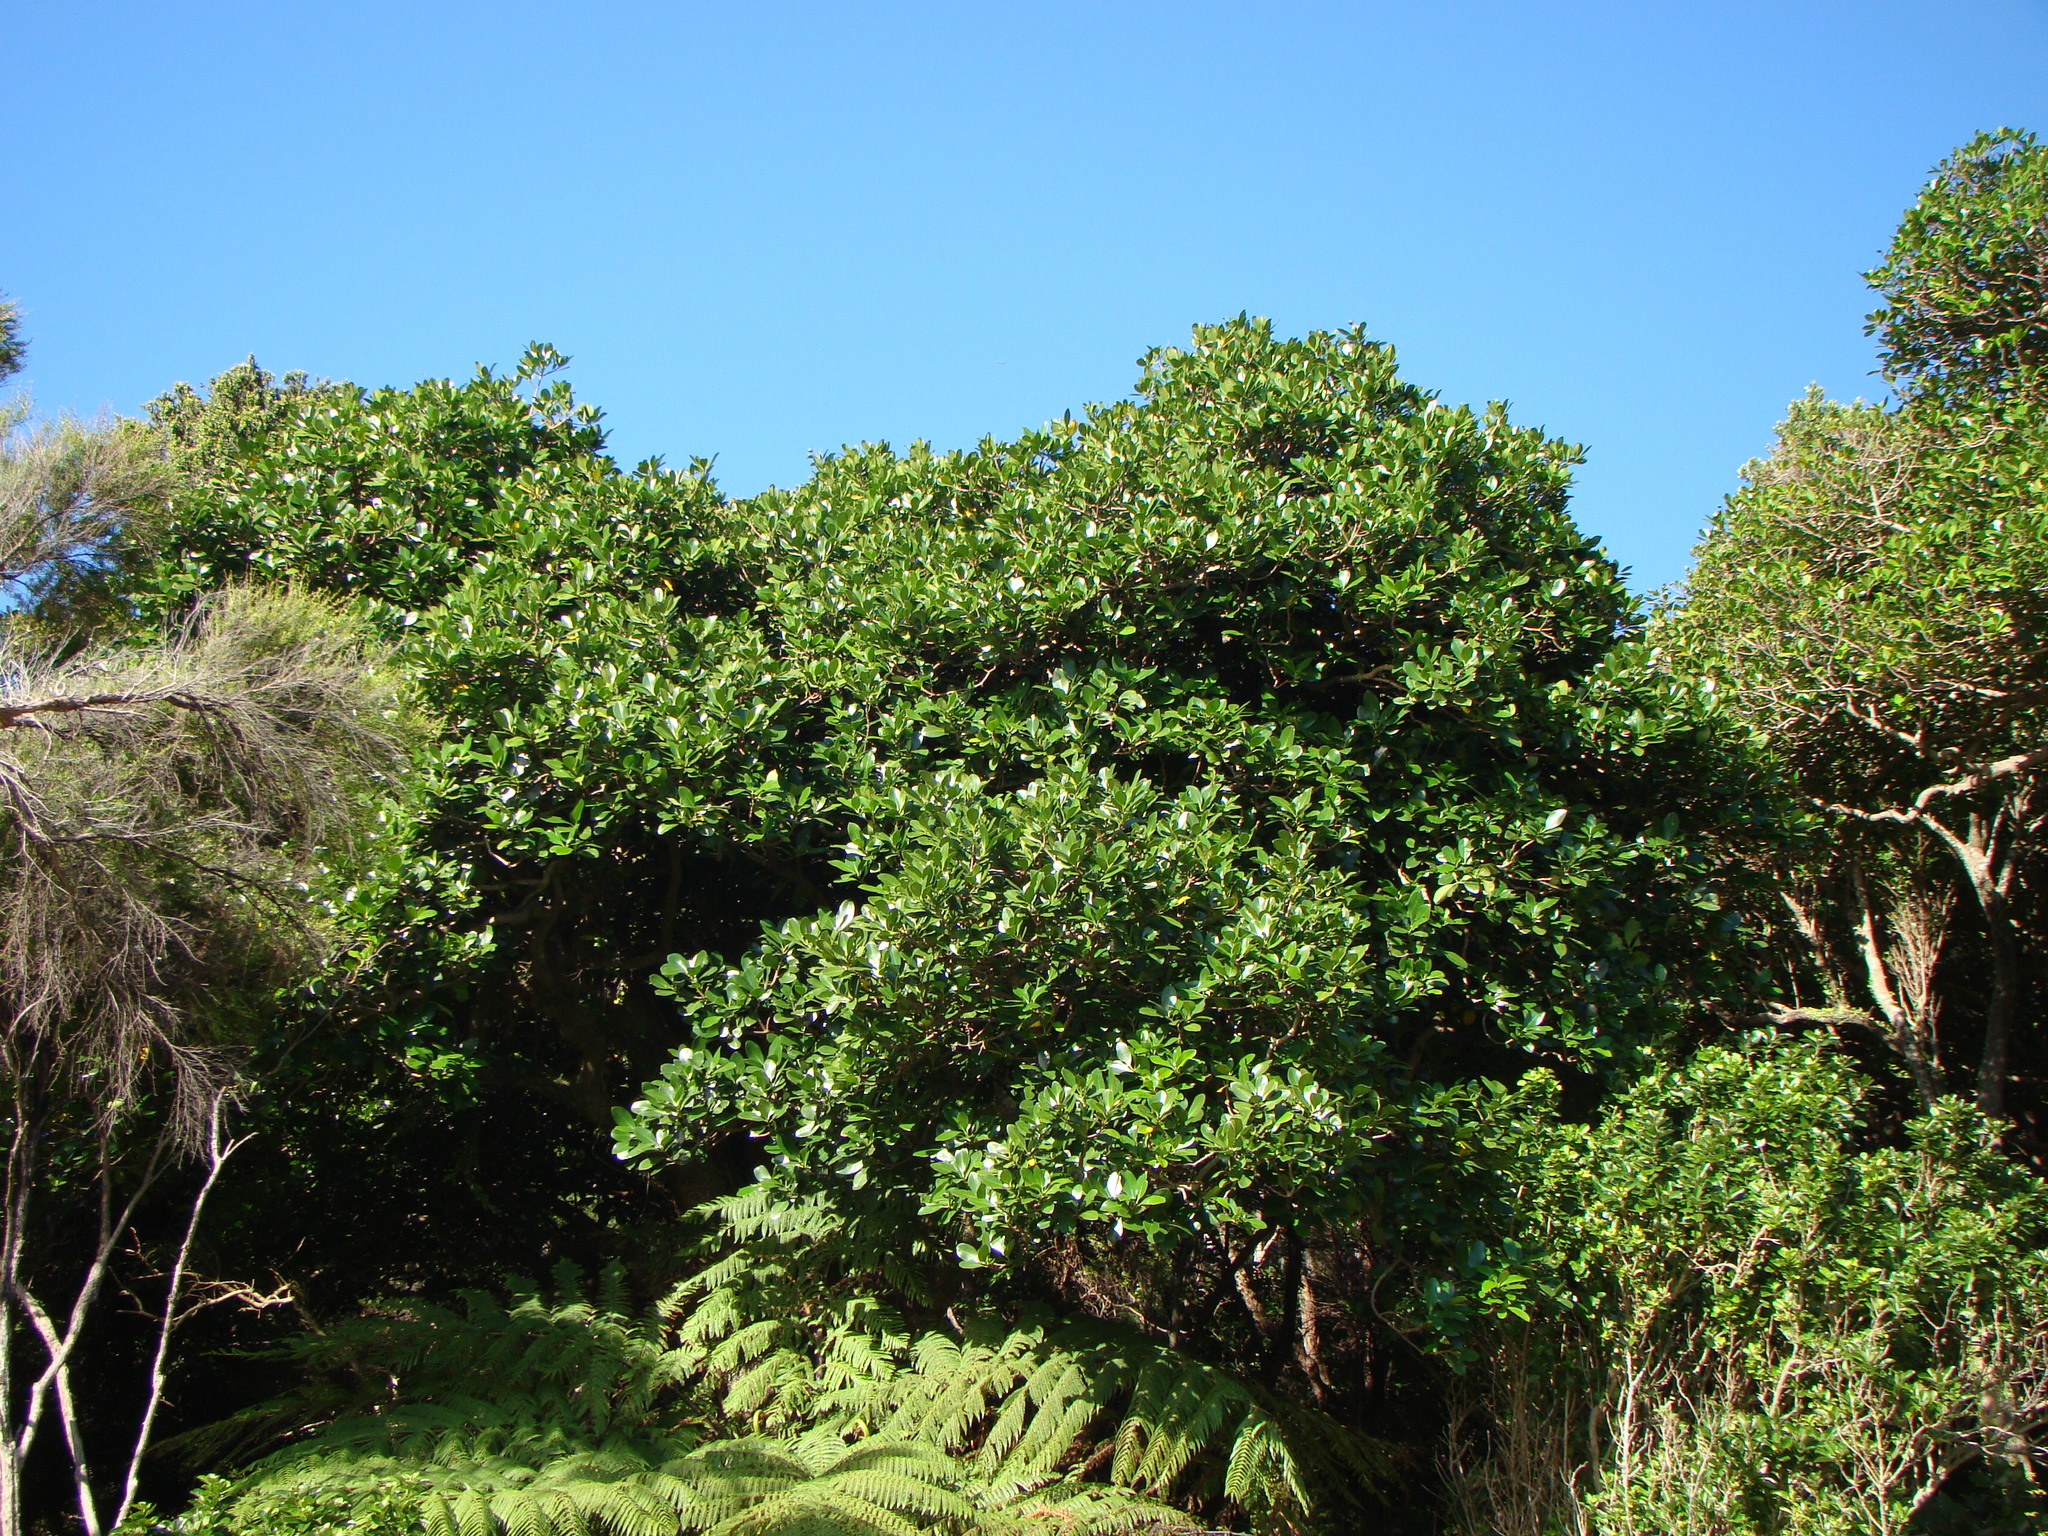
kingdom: Plantae
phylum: Tracheophyta
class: Magnoliopsida
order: Cucurbitales
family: Corynocarpaceae
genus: Corynocarpus
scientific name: Corynocarpus laevigatus
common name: New zealand laurel
